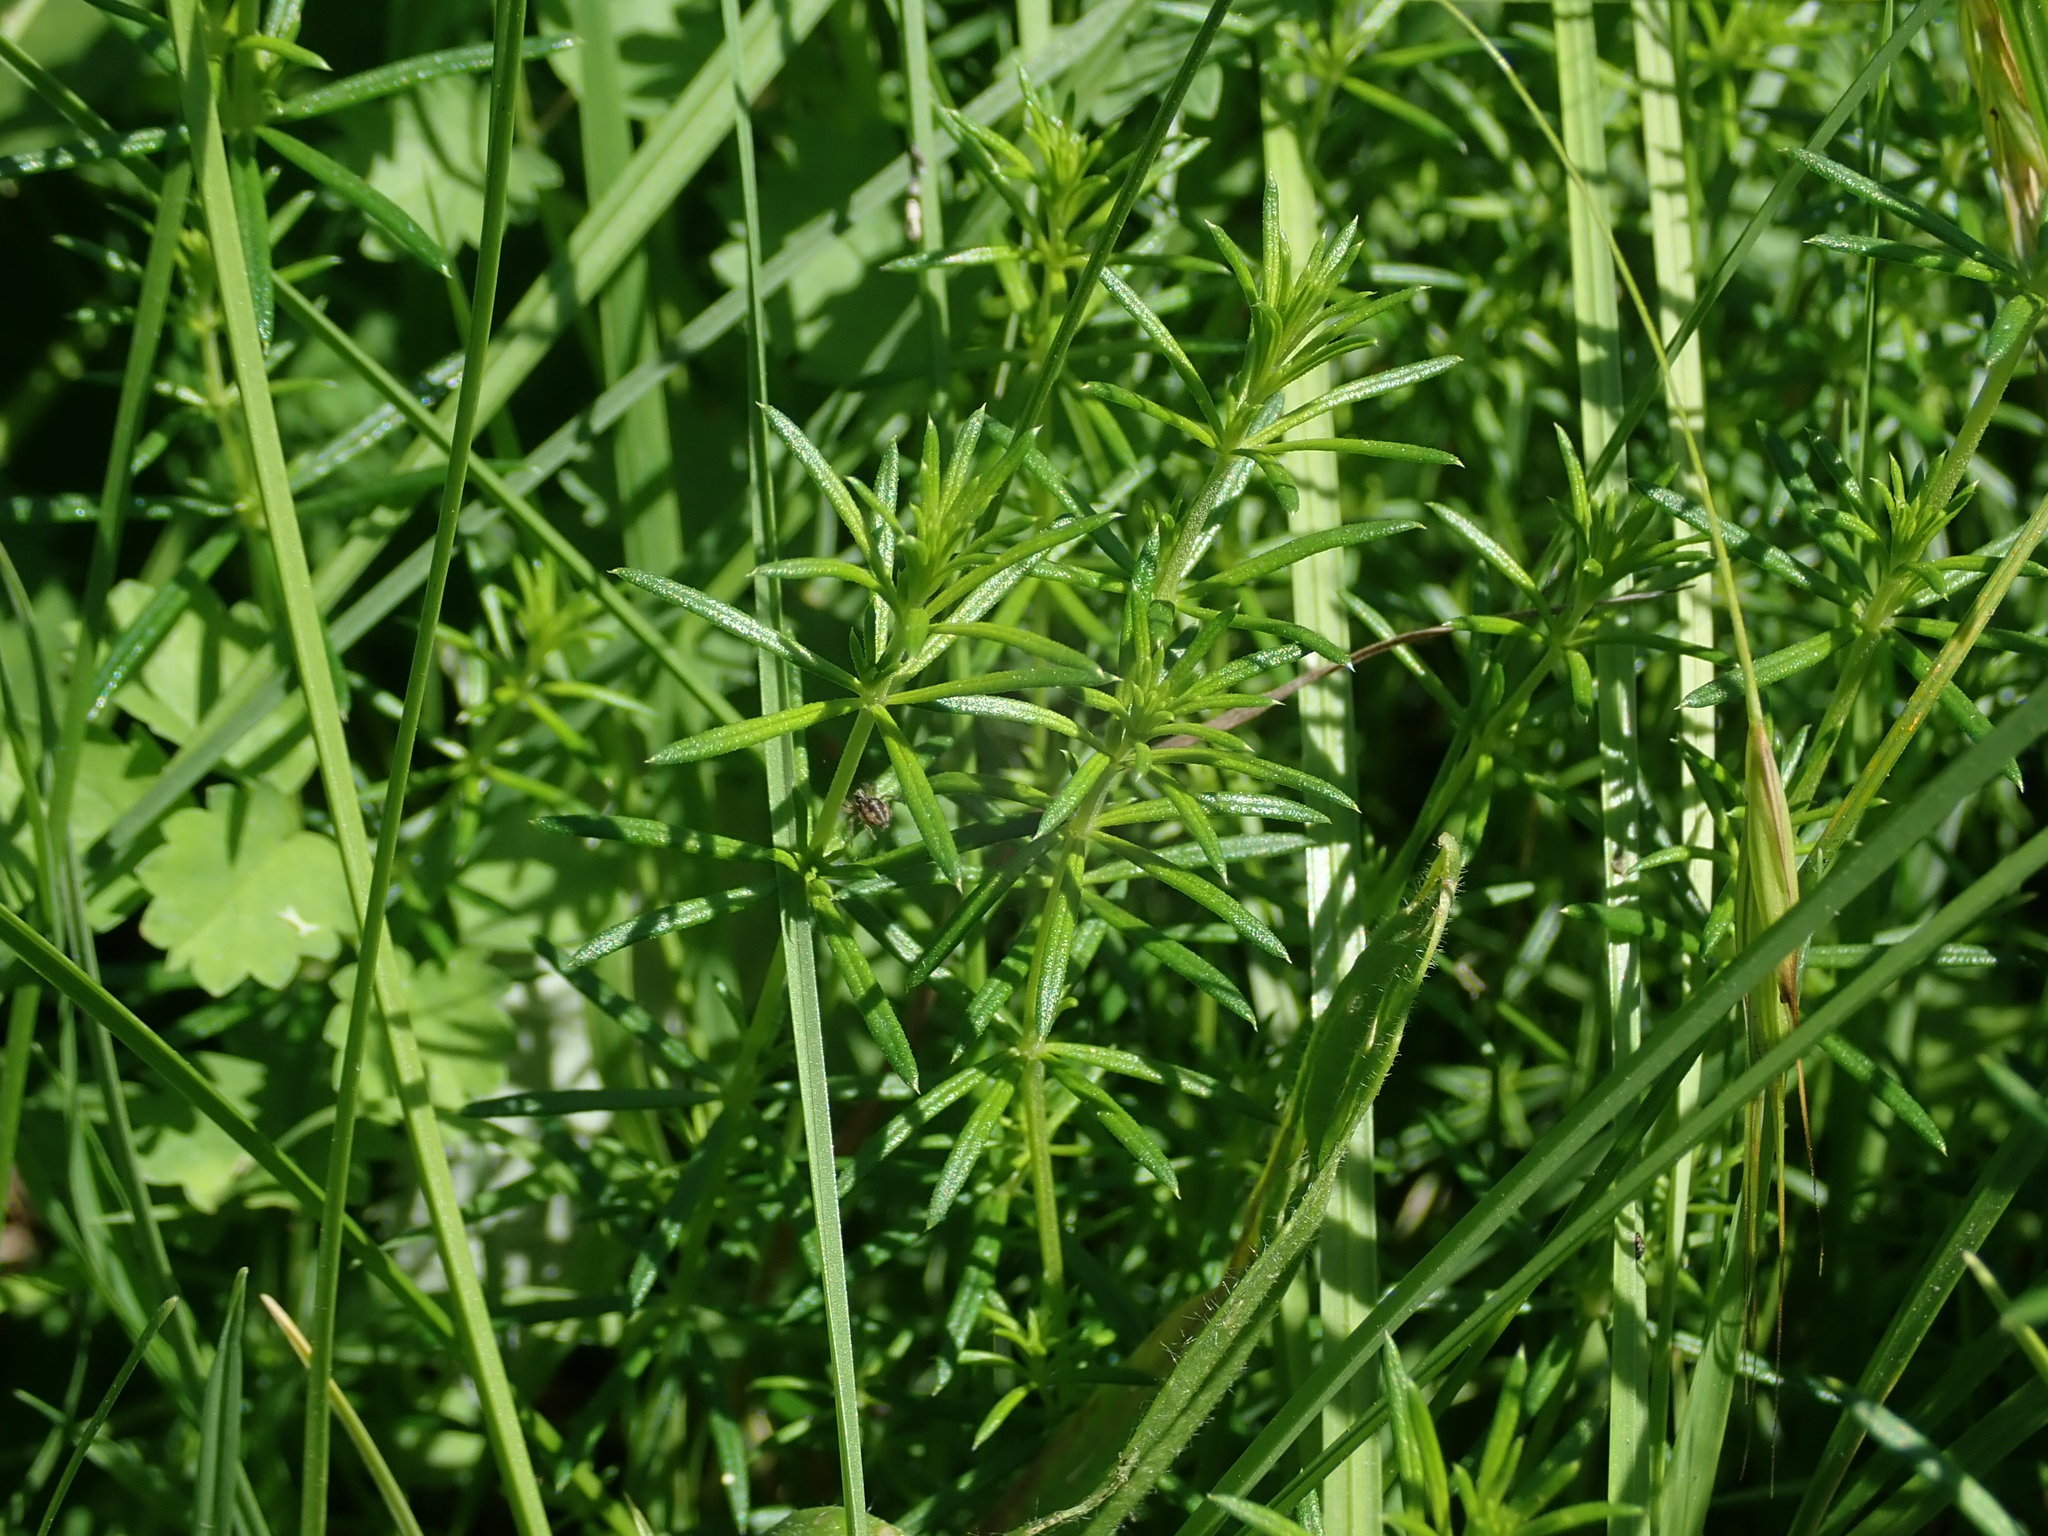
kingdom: Plantae
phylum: Tracheophyta
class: Magnoliopsida
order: Gentianales
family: Rubiaceae
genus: Galium
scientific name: Galium verum
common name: Lady's bedstraw
